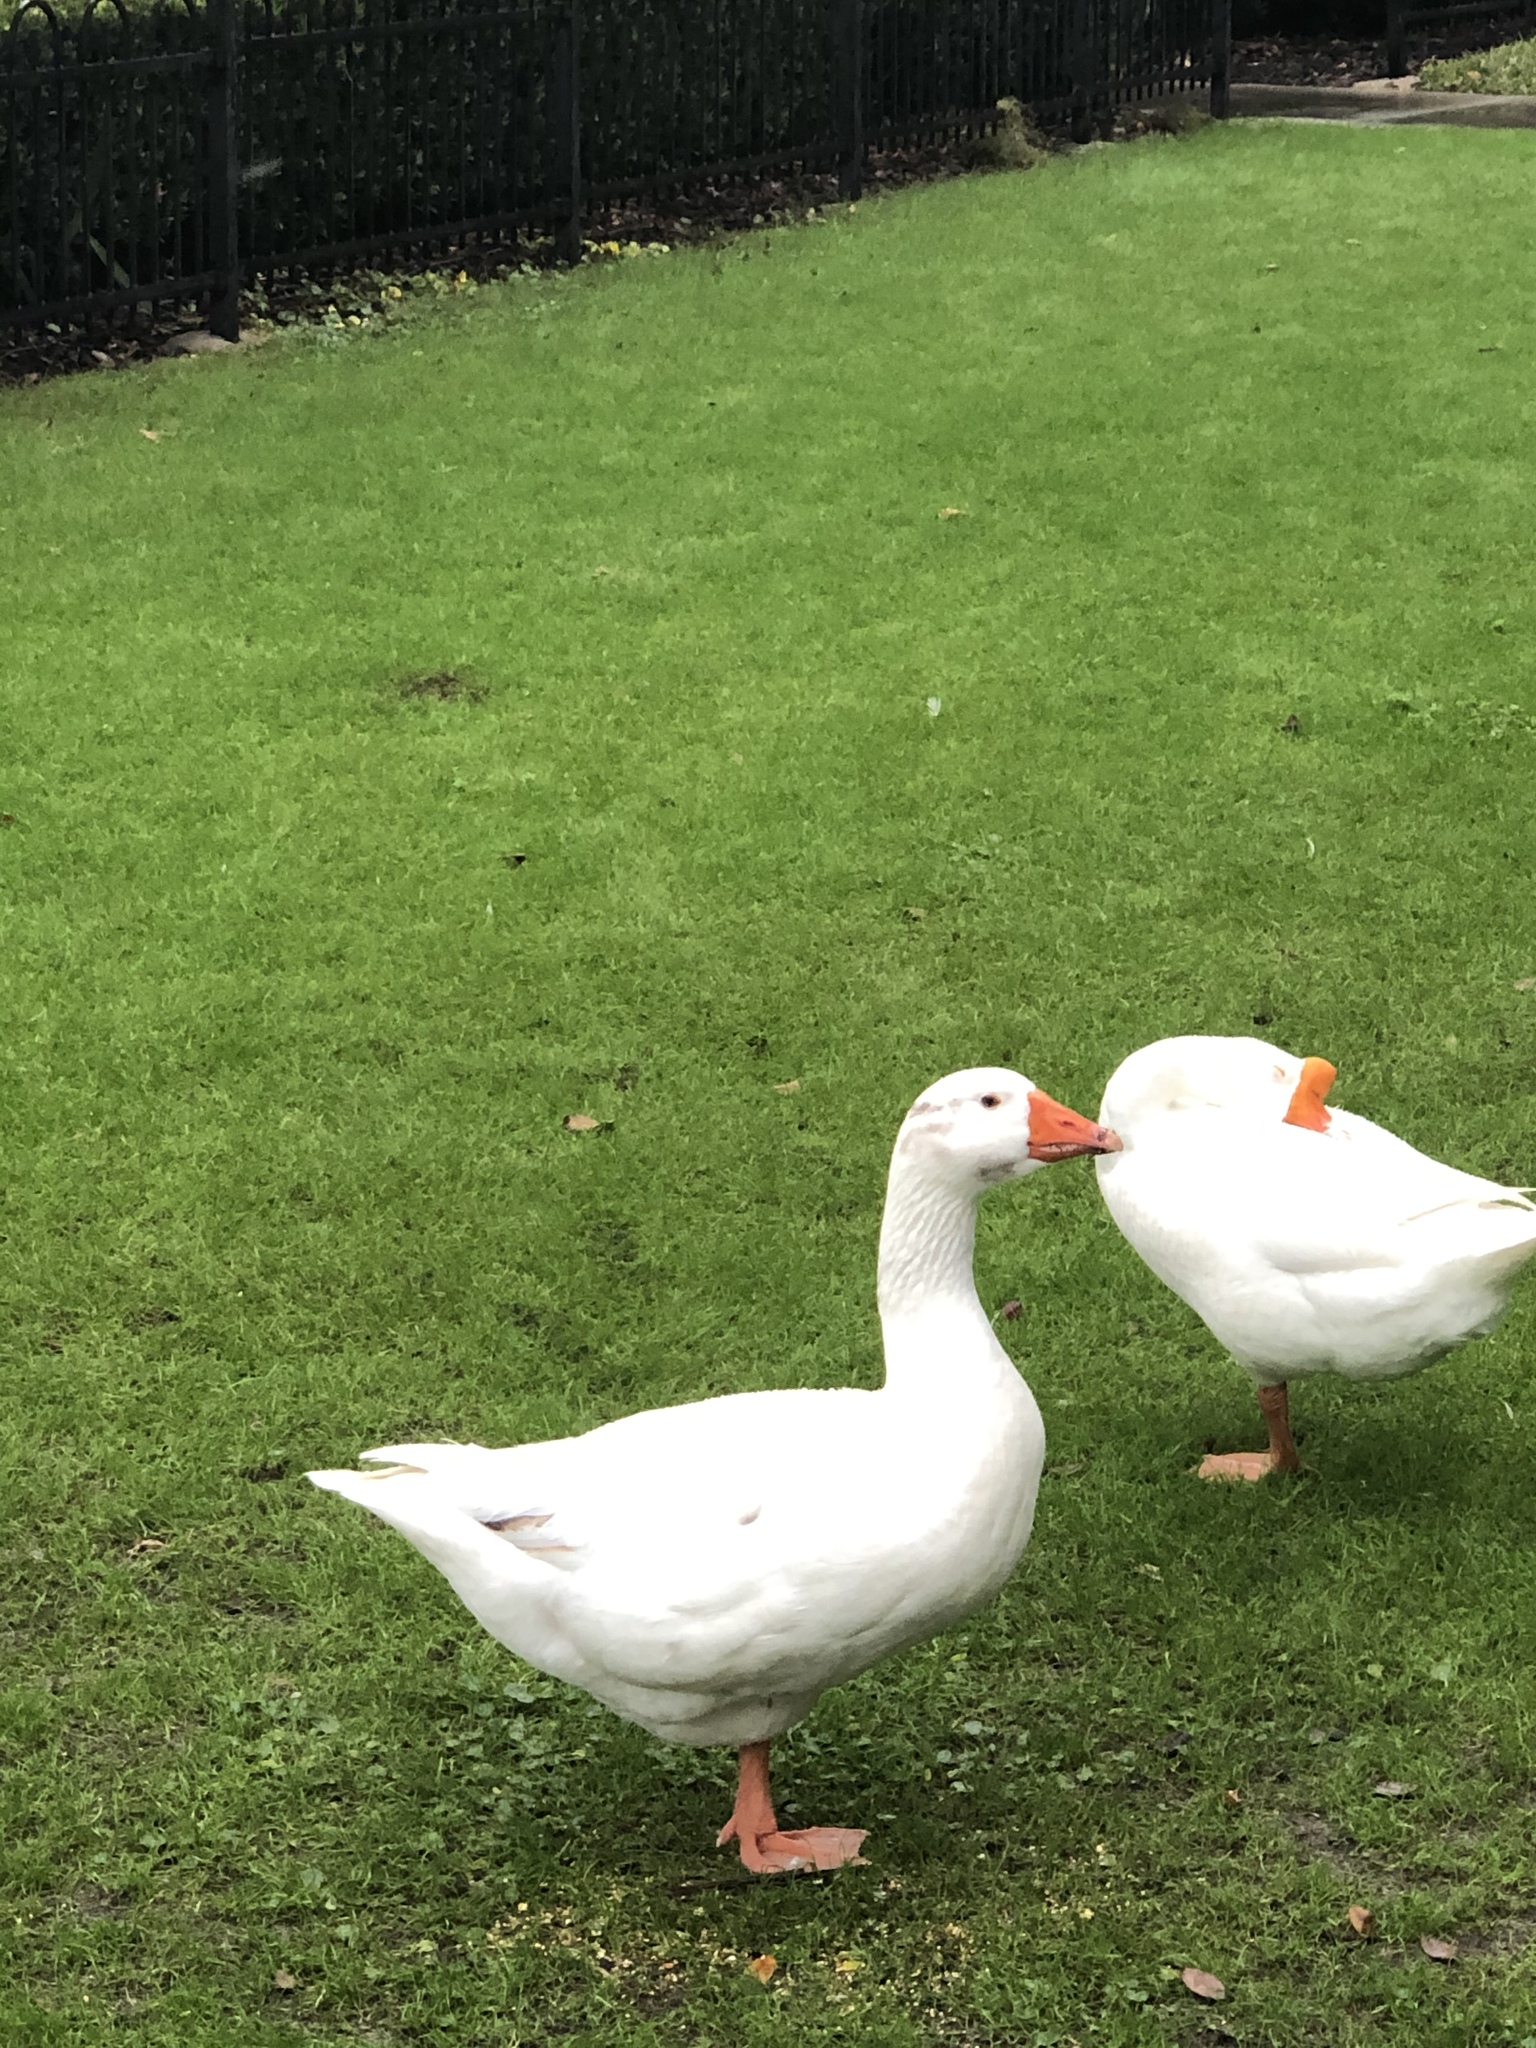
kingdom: Animalia
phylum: Chordata
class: Aves
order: Anseriformes
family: Anatidae
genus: Anser
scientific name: Anser anser
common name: Greylag goose
